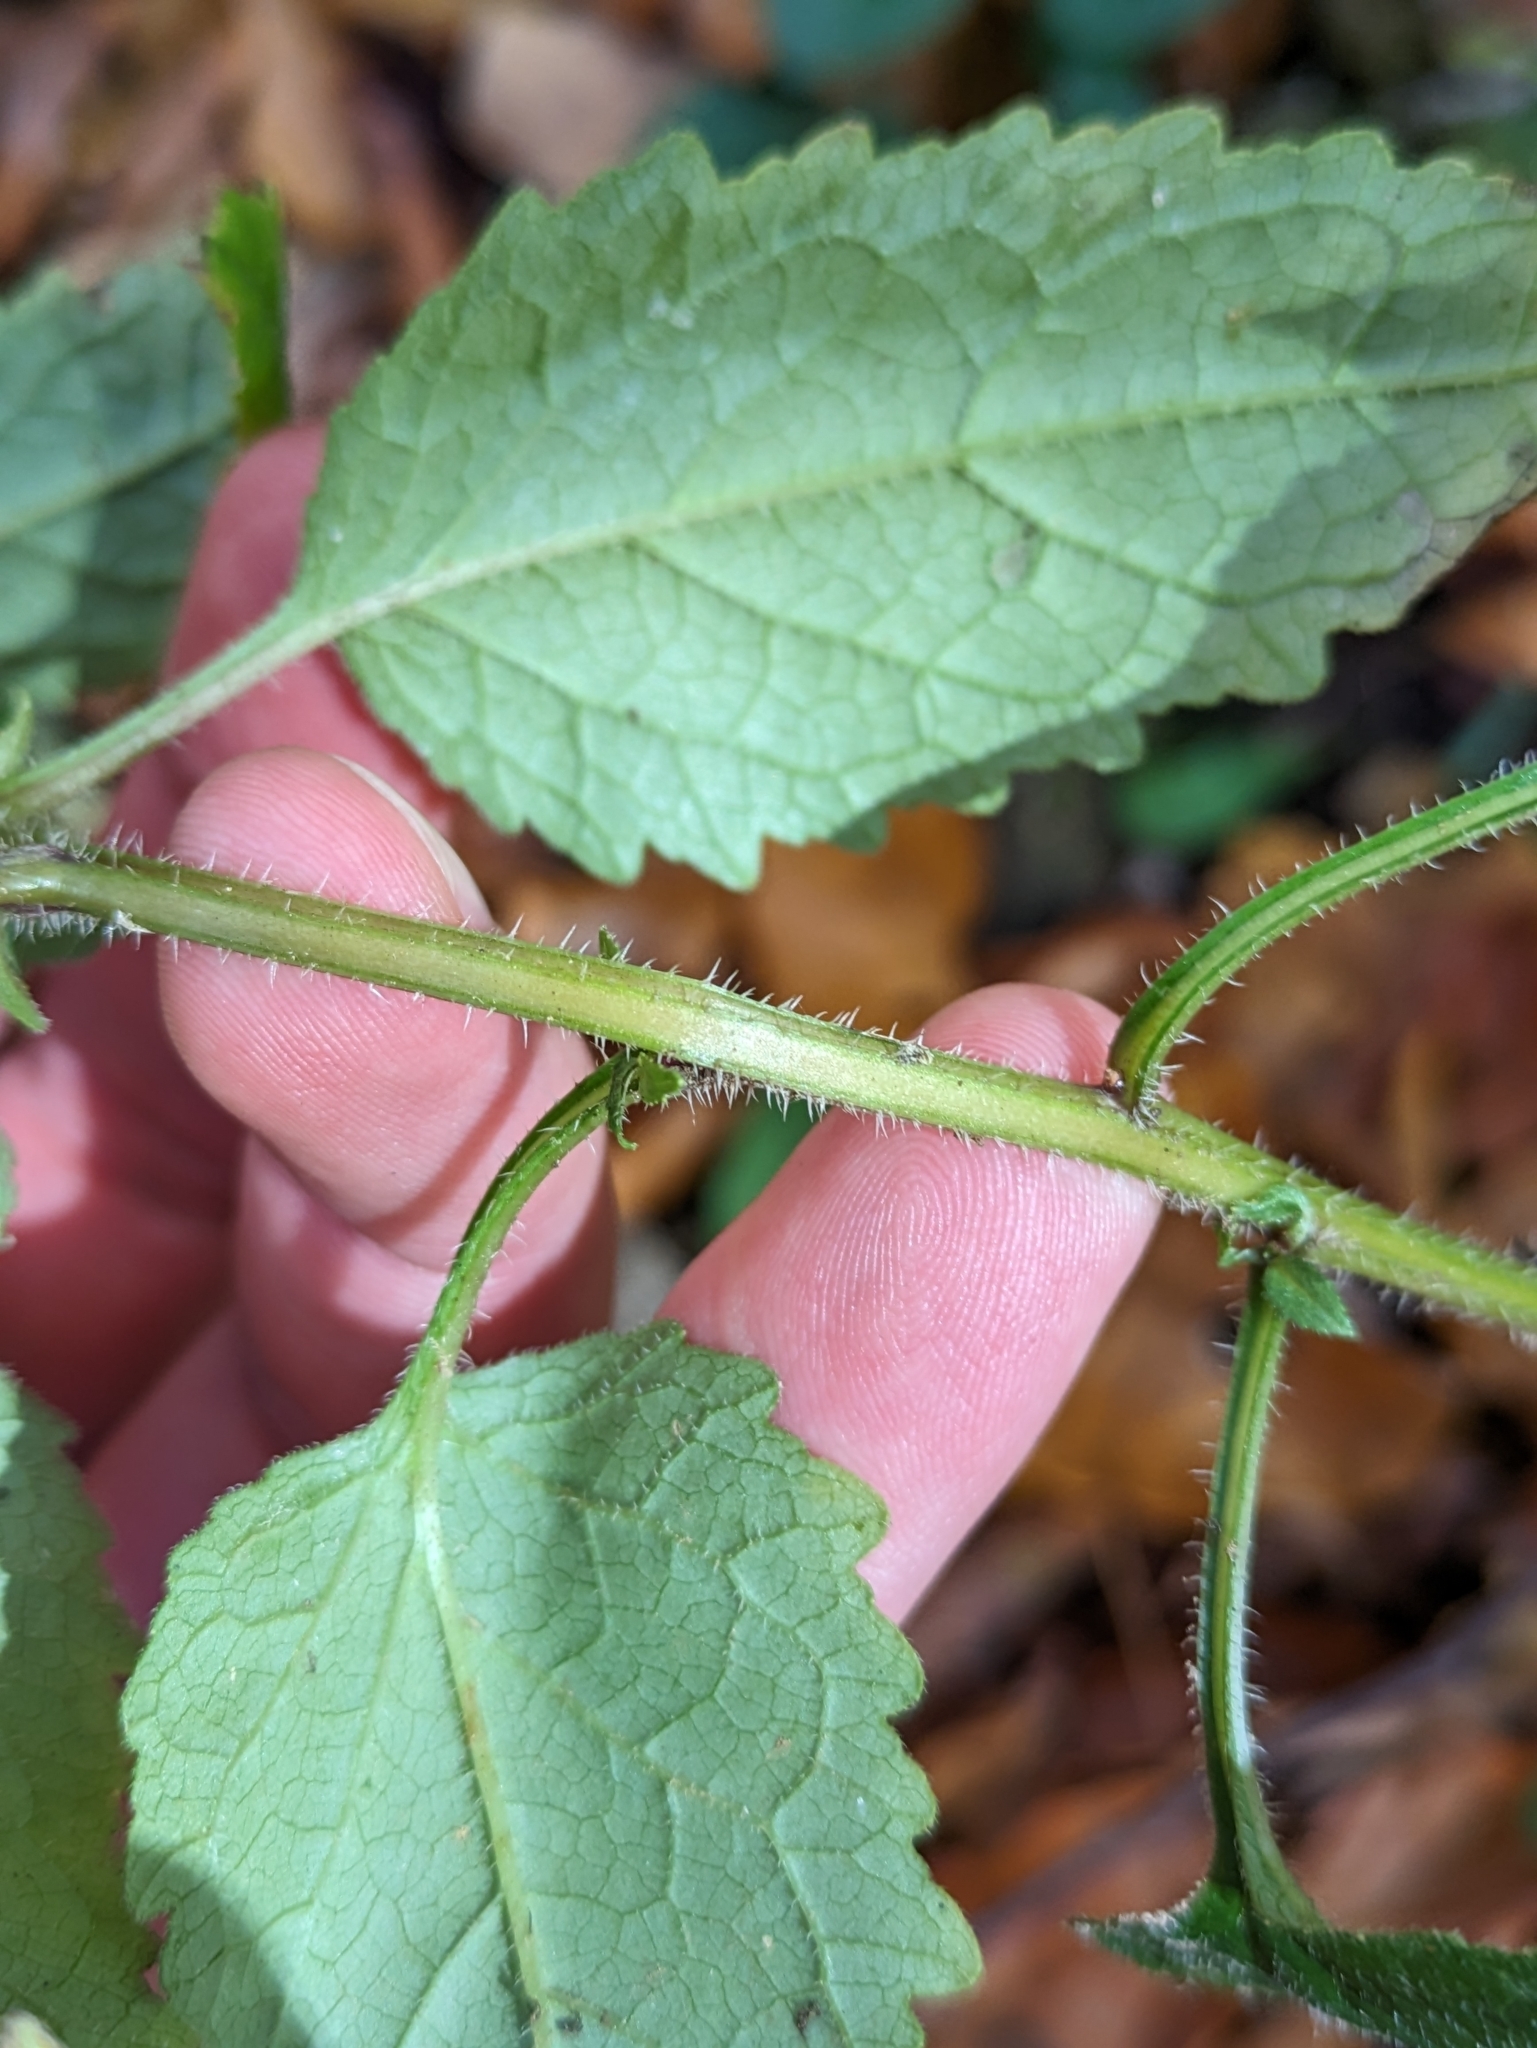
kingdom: Plantae
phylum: Tracheophyta
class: Magnoliopsida
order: Asterales
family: Campanulaceae
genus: Campanula
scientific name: Campanula trachelium
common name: Nettle-leaved bellflower
